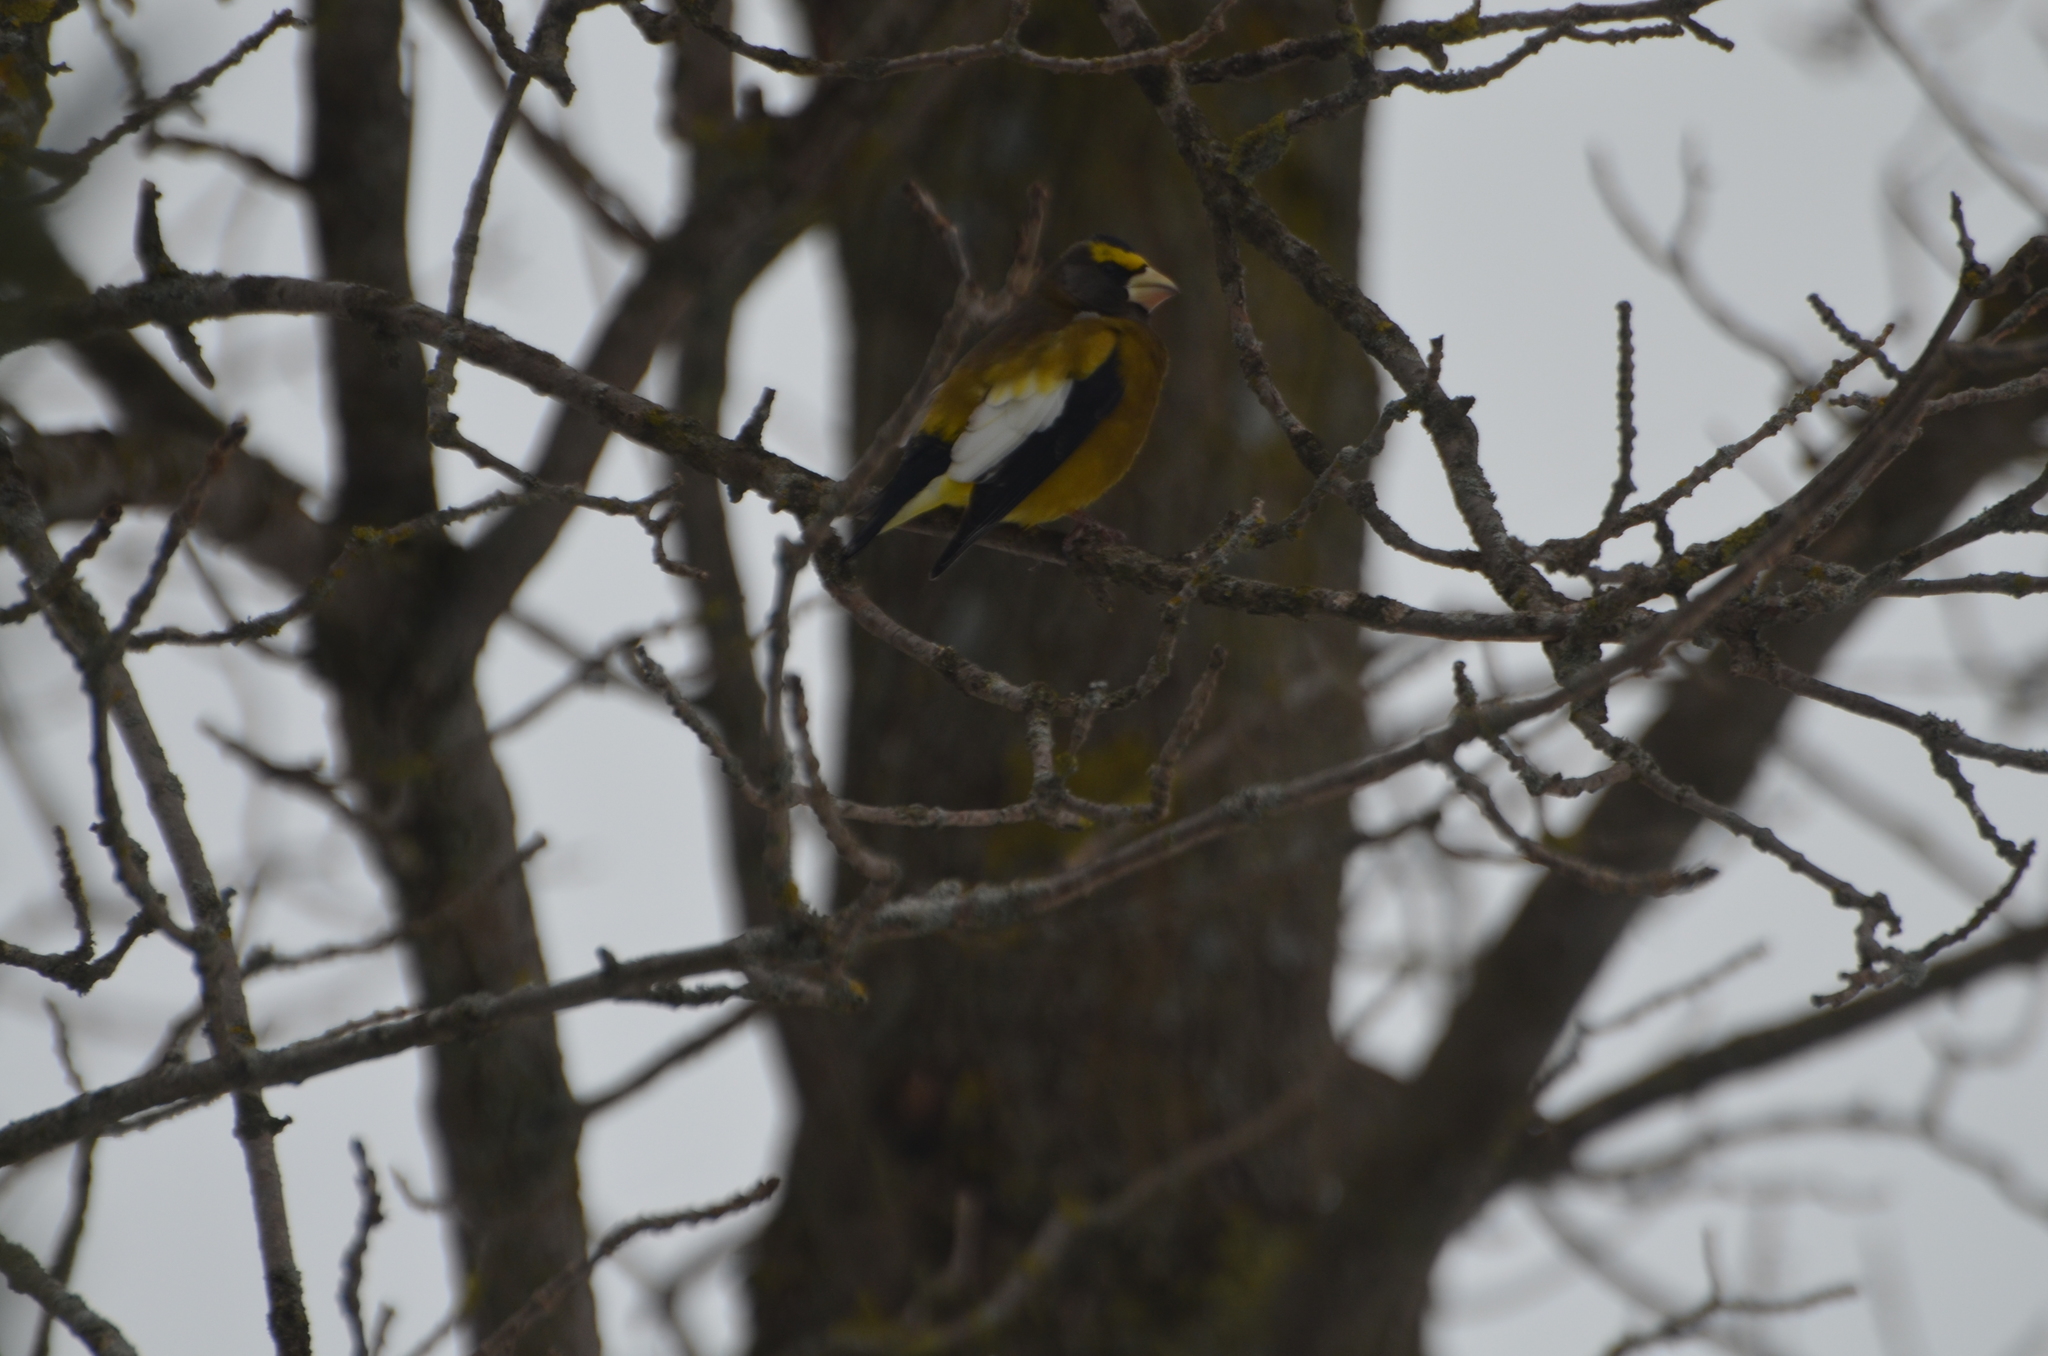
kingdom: Animalia
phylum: Chordata
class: Aves
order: Passeriformes
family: Fringillidae
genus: Hesperiphona
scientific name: Hesperiphona vespertina
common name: Evening grosbeak
